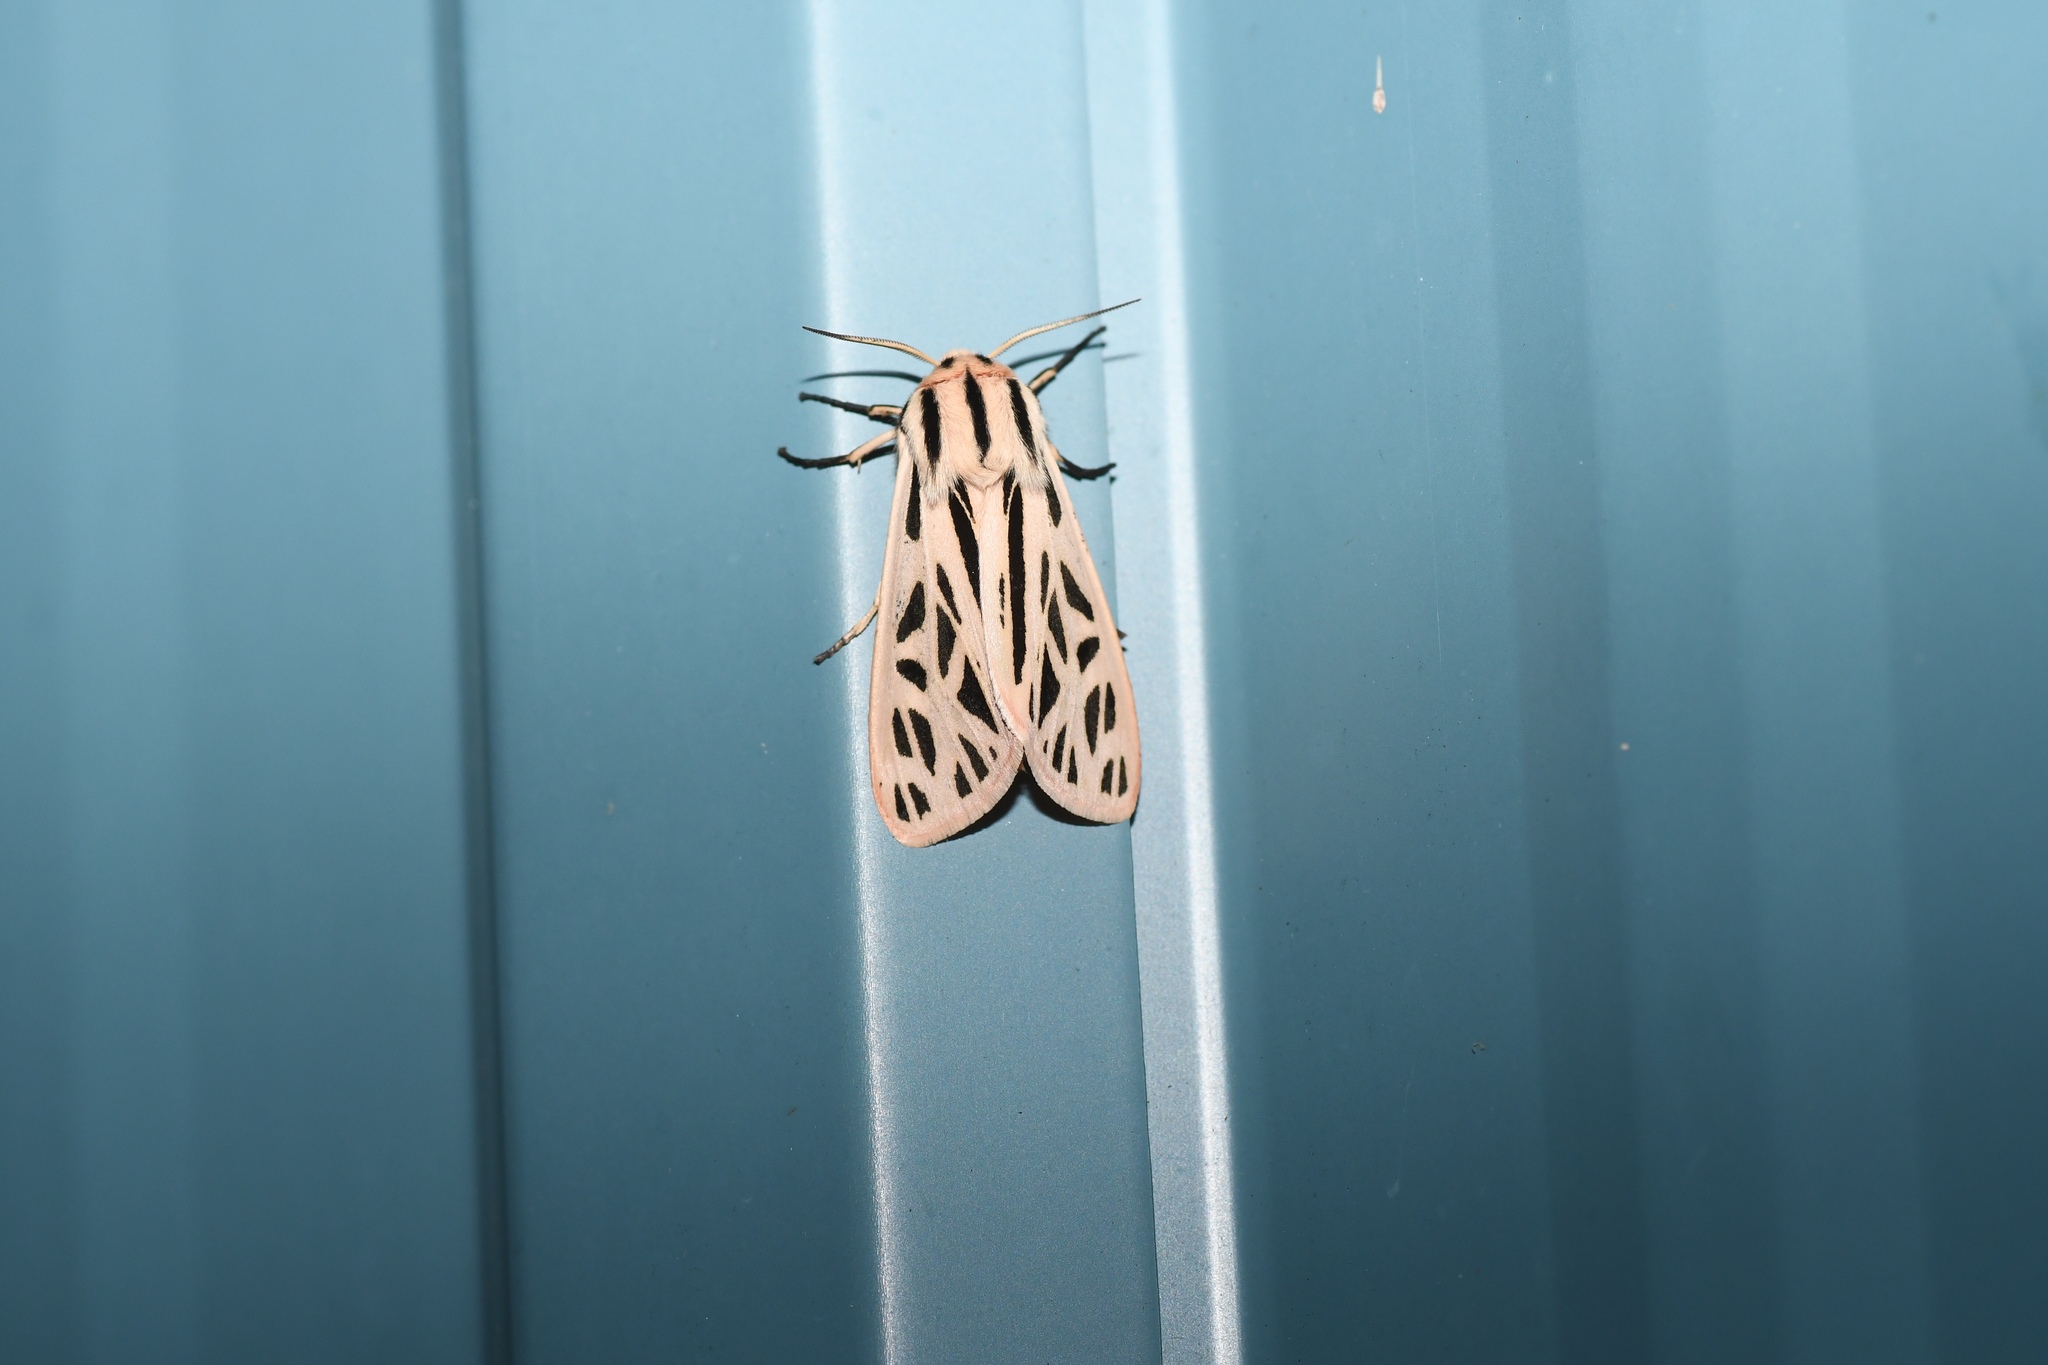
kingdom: Animalia
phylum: Arthropoda
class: Insecta
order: Lepidoptera
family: Erebidae
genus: Apantesis
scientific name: Apantesis arge
